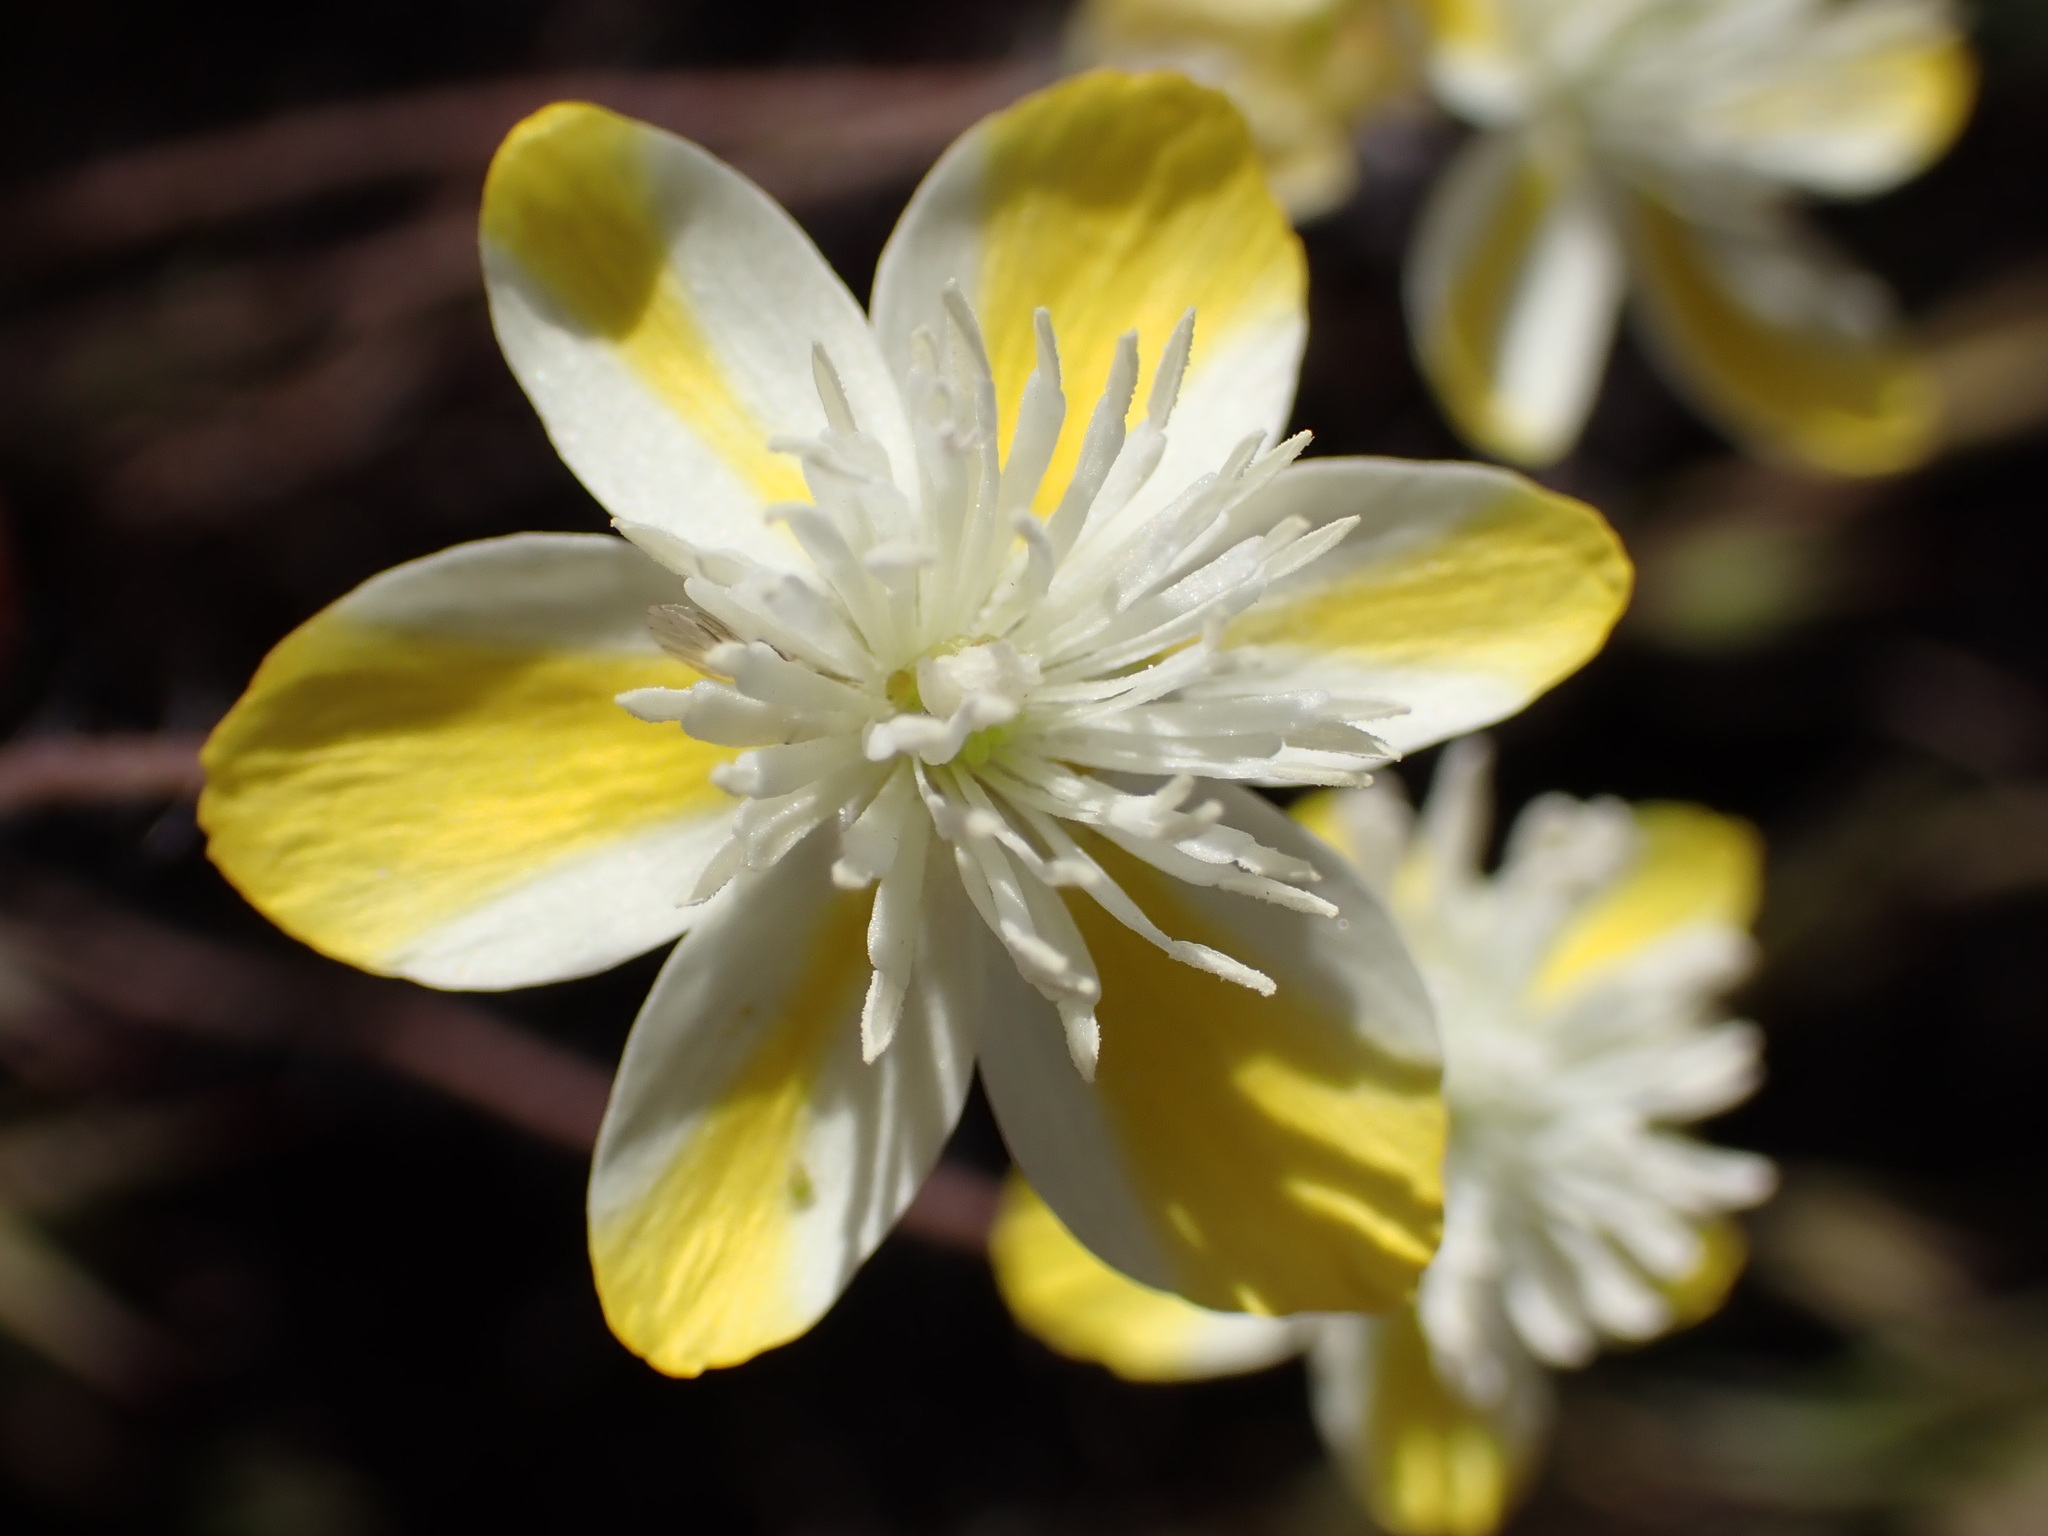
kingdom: Plantae
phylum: Tracheophyta
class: Magnoliopsida
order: Ranunculales
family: Papaveraceae
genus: Platystemon
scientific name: Platystemon californicus
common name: Cream-cups
